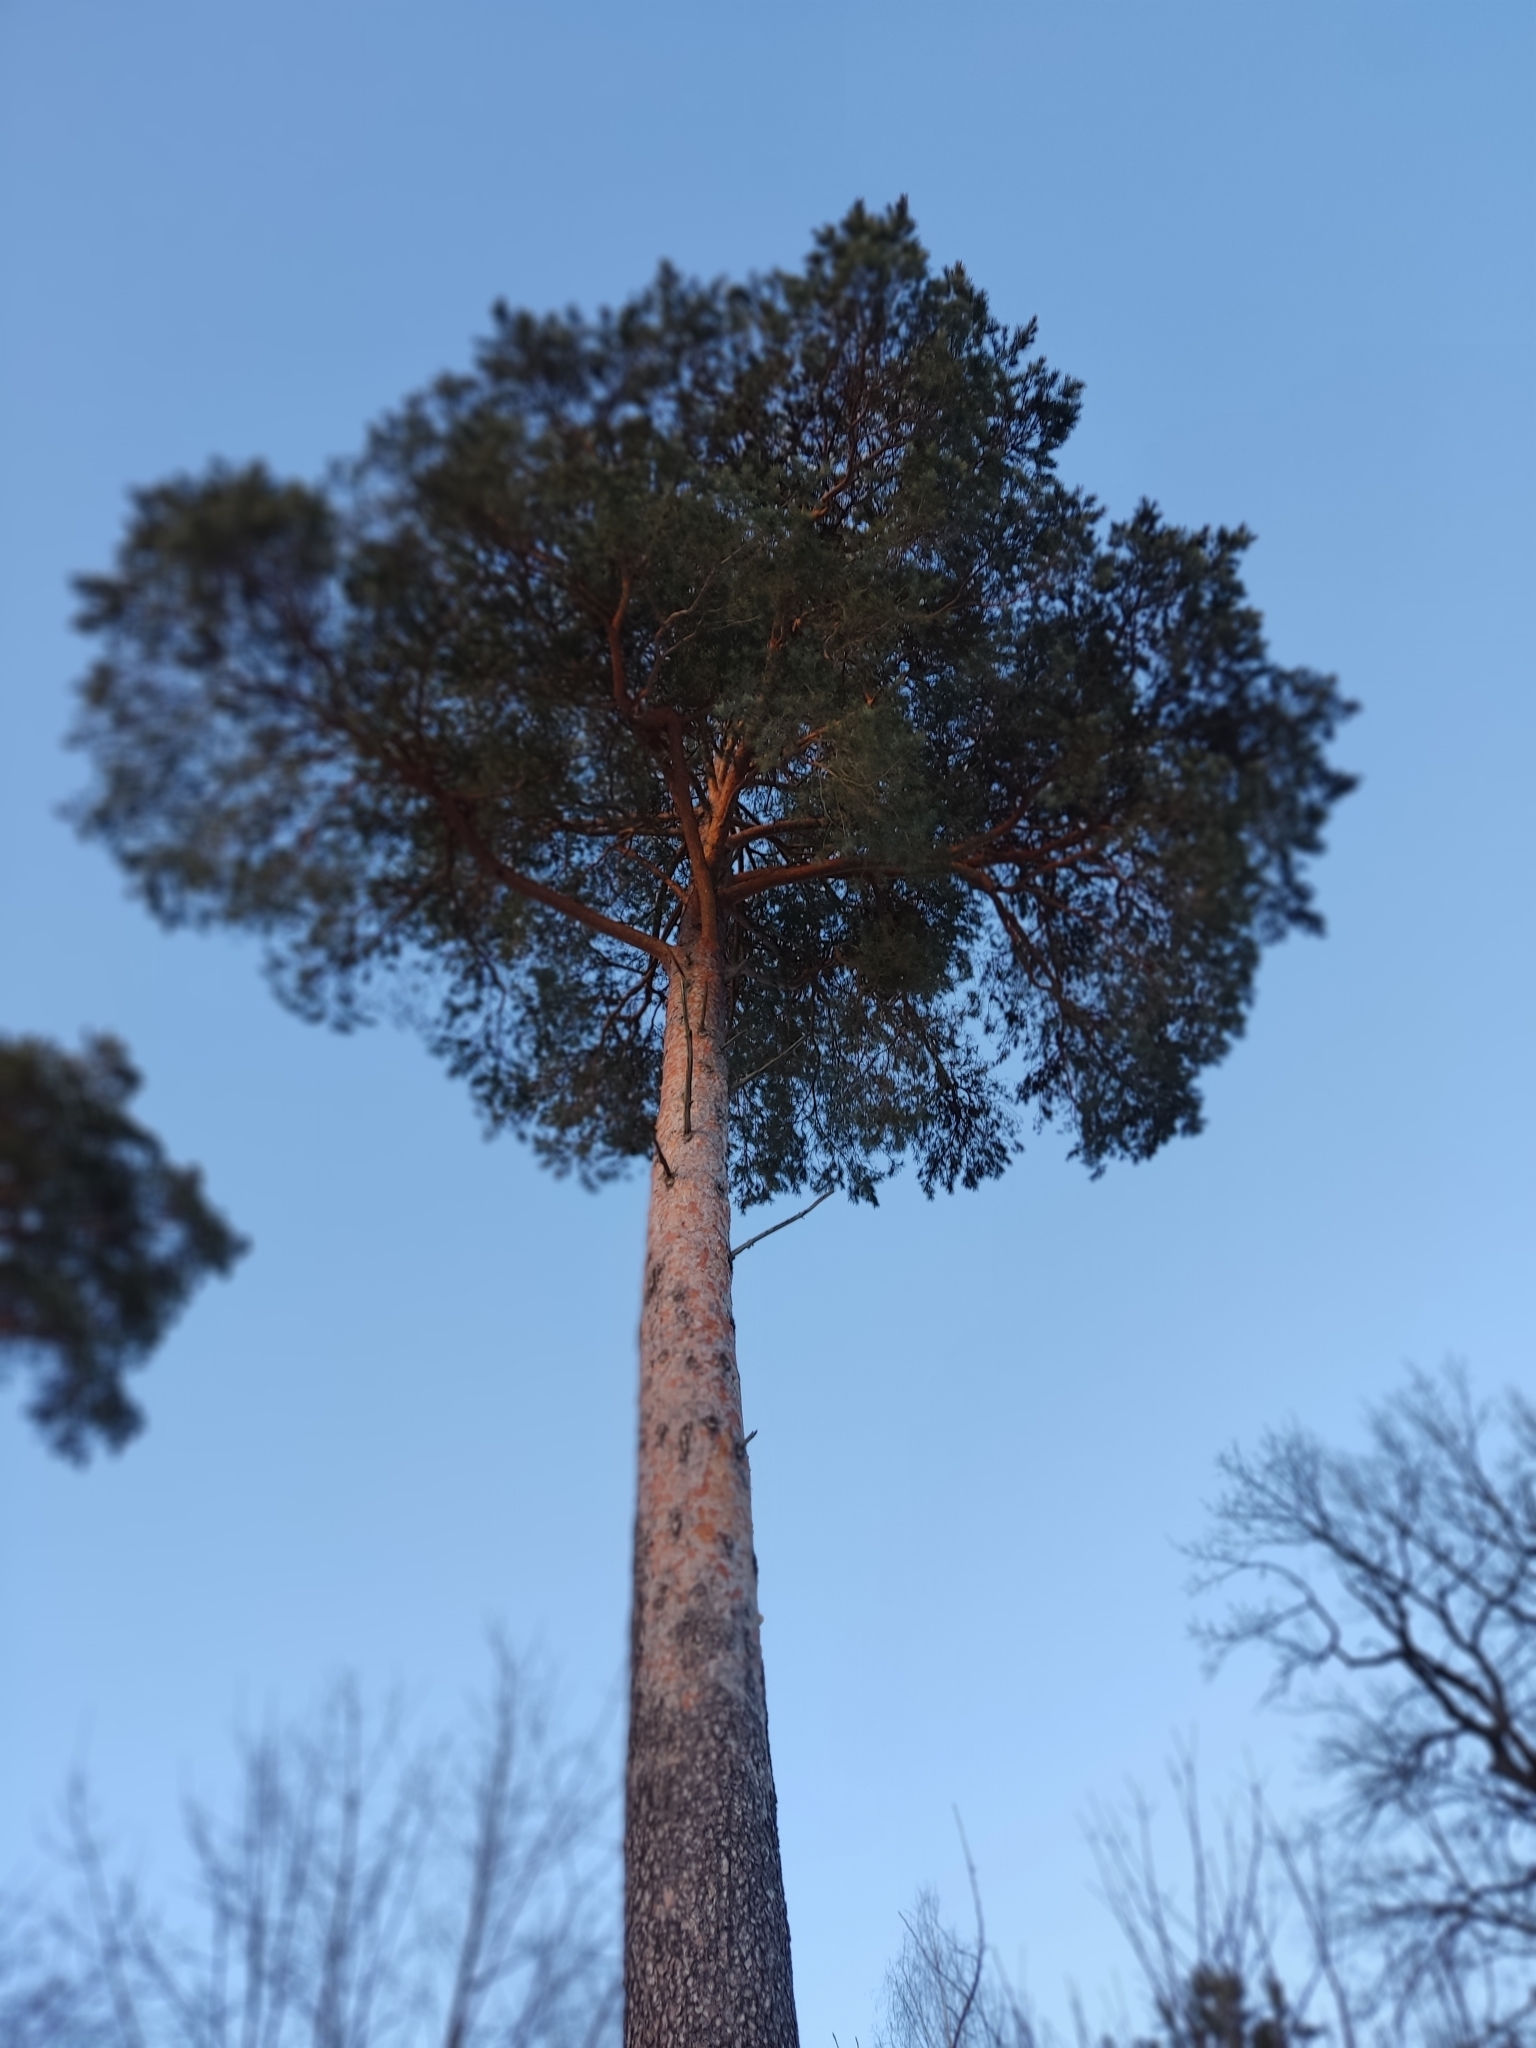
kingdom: Plantae
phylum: Tracheophyta
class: Pinopsida
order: Pinales
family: Pinaceae
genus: Pinus
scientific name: Pinus sylvestris
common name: Scots pine
